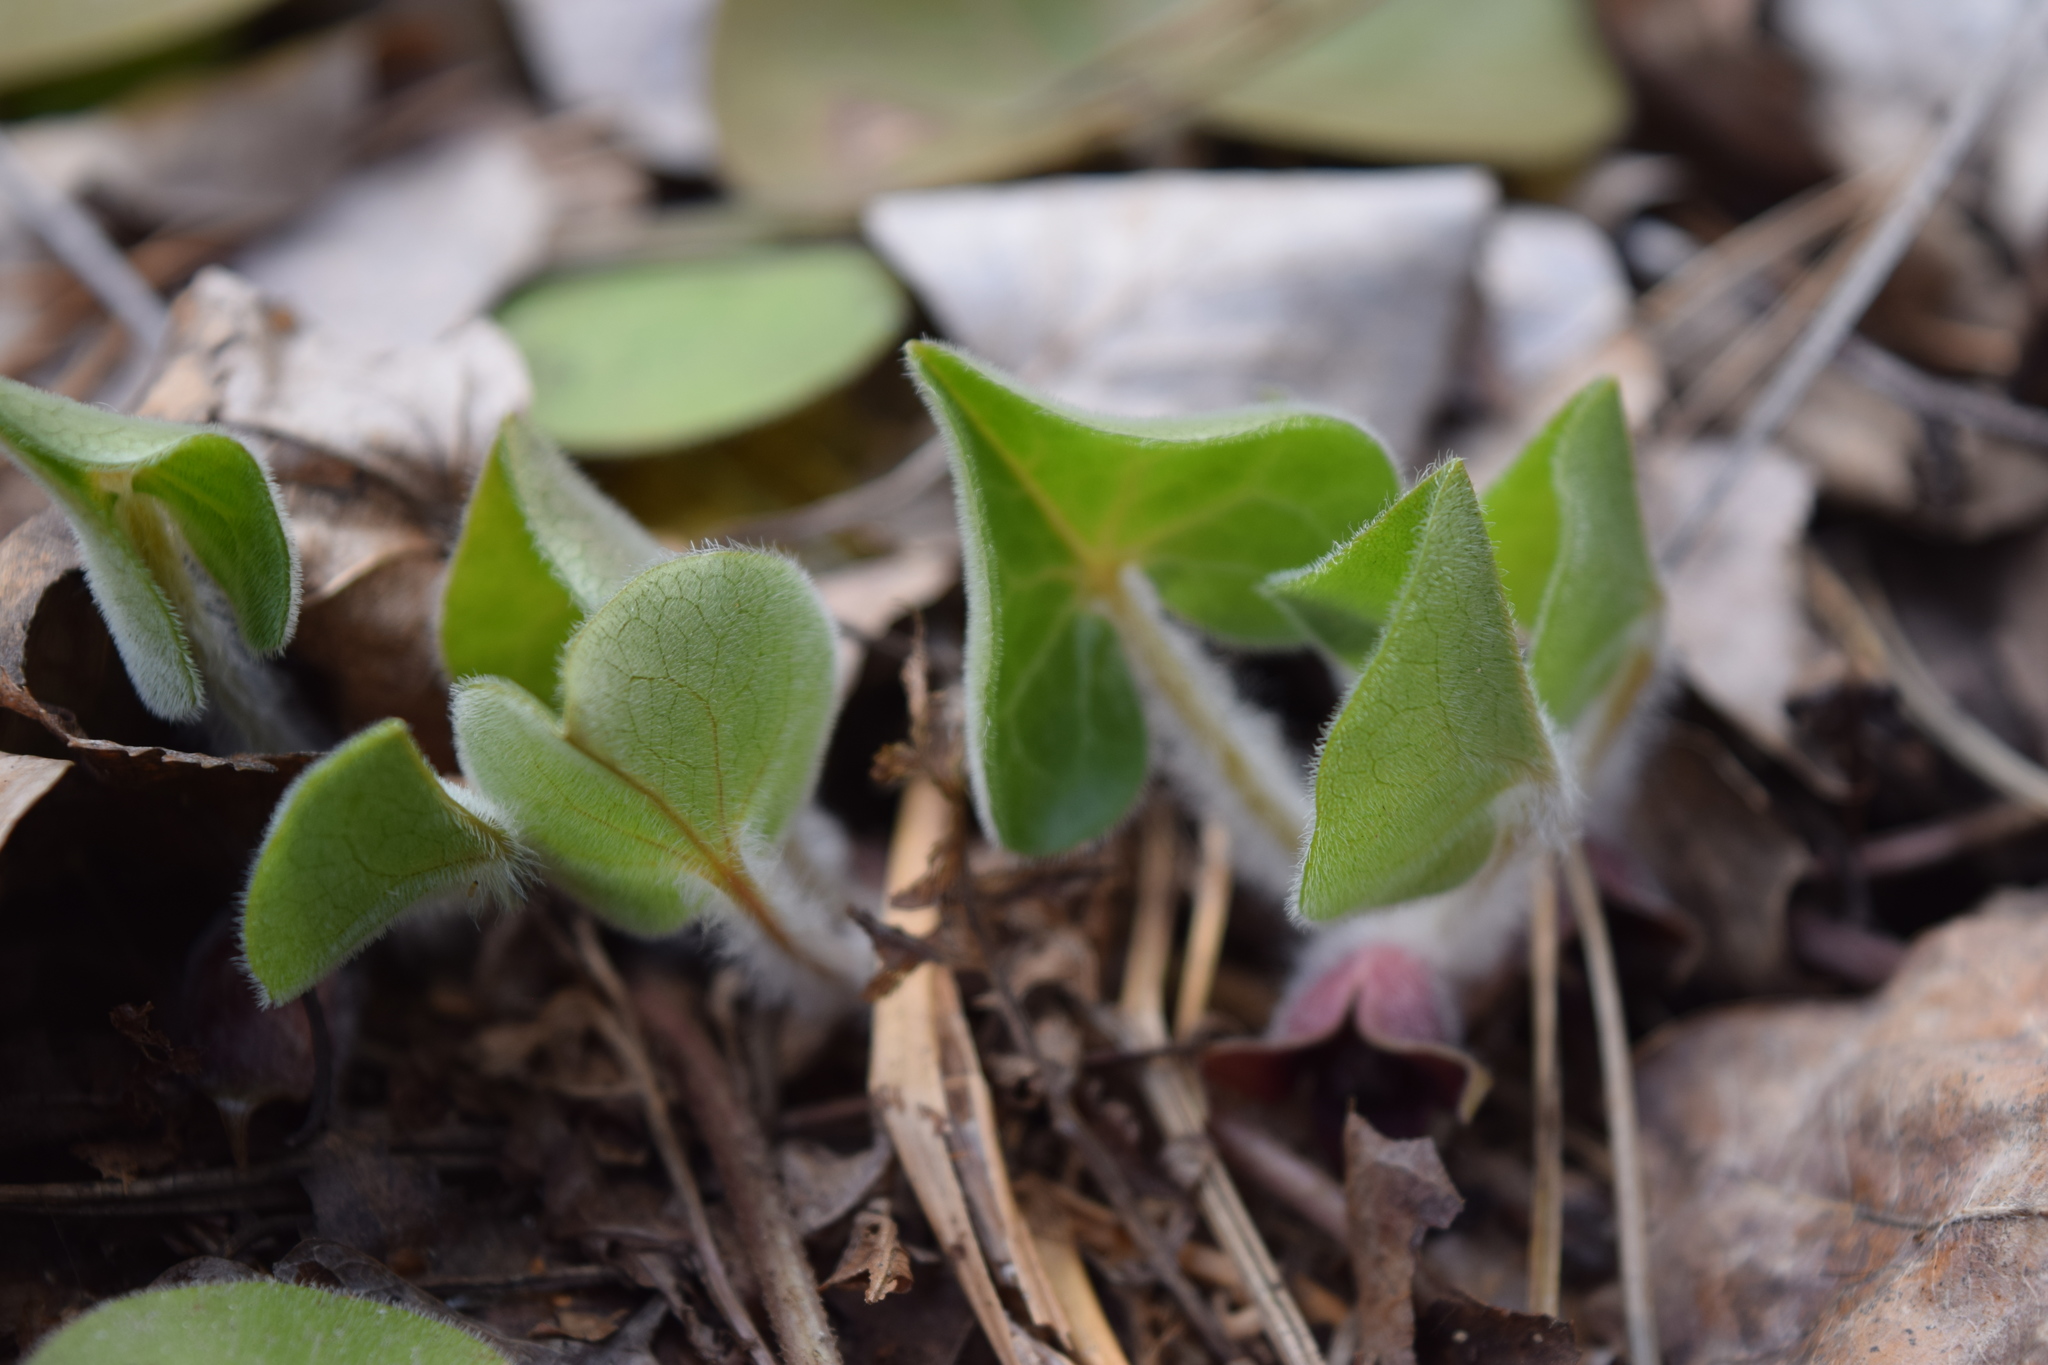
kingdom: Plantae
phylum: Tracheophyta
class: Magnoliopsida
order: Piperales
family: Aristolochiaceae
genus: Asarum
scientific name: Asarum europaeum
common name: Asarabacca
